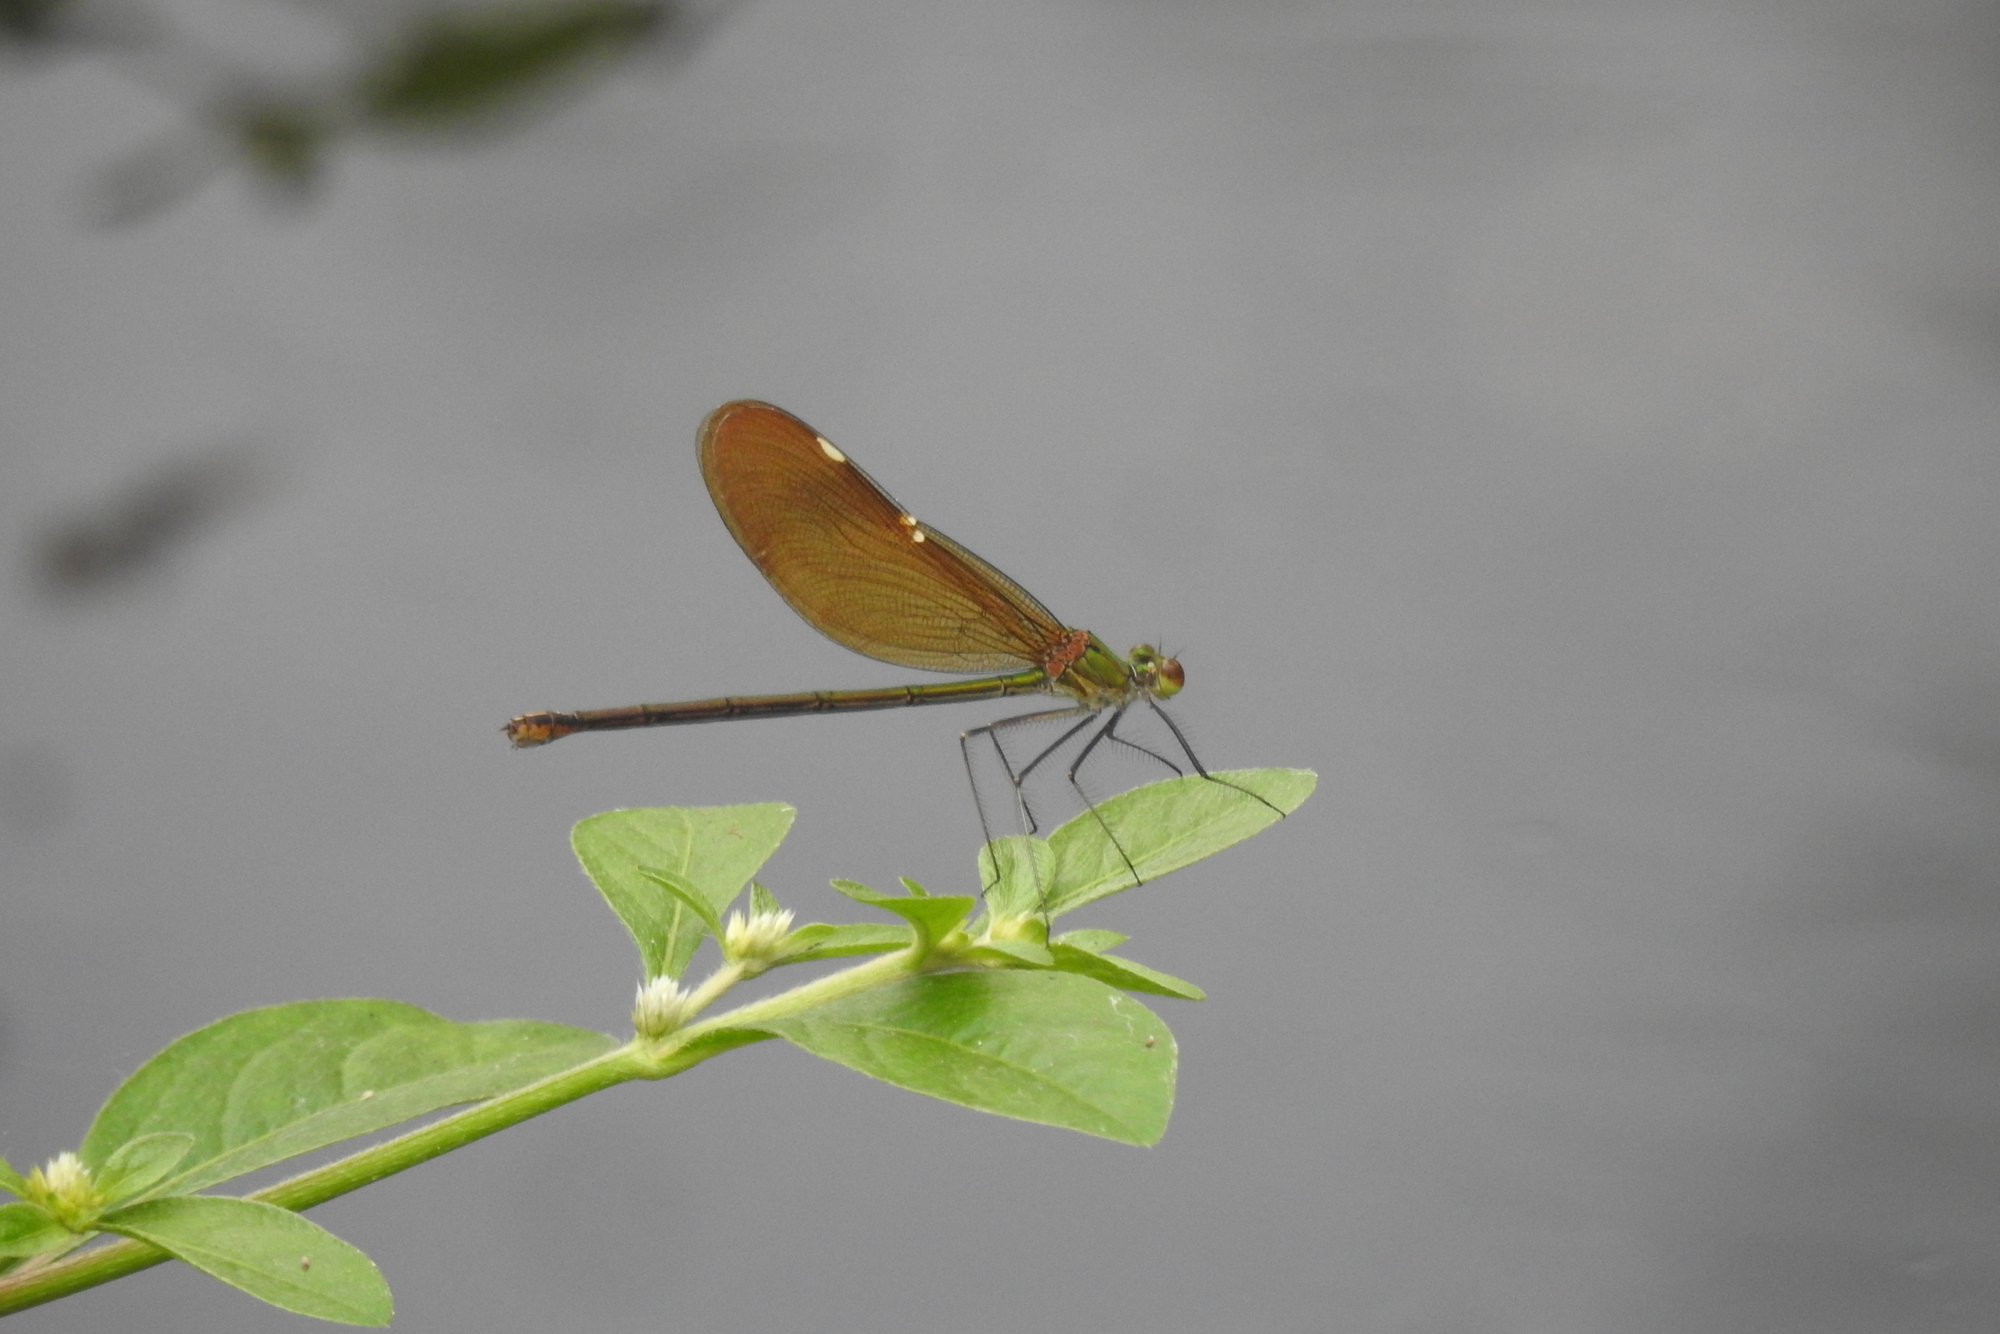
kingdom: Animalia
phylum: Arthropoda
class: Insecta
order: Odonata
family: Calopterygidae
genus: Neurobasis
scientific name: Neurobasis chinensis
